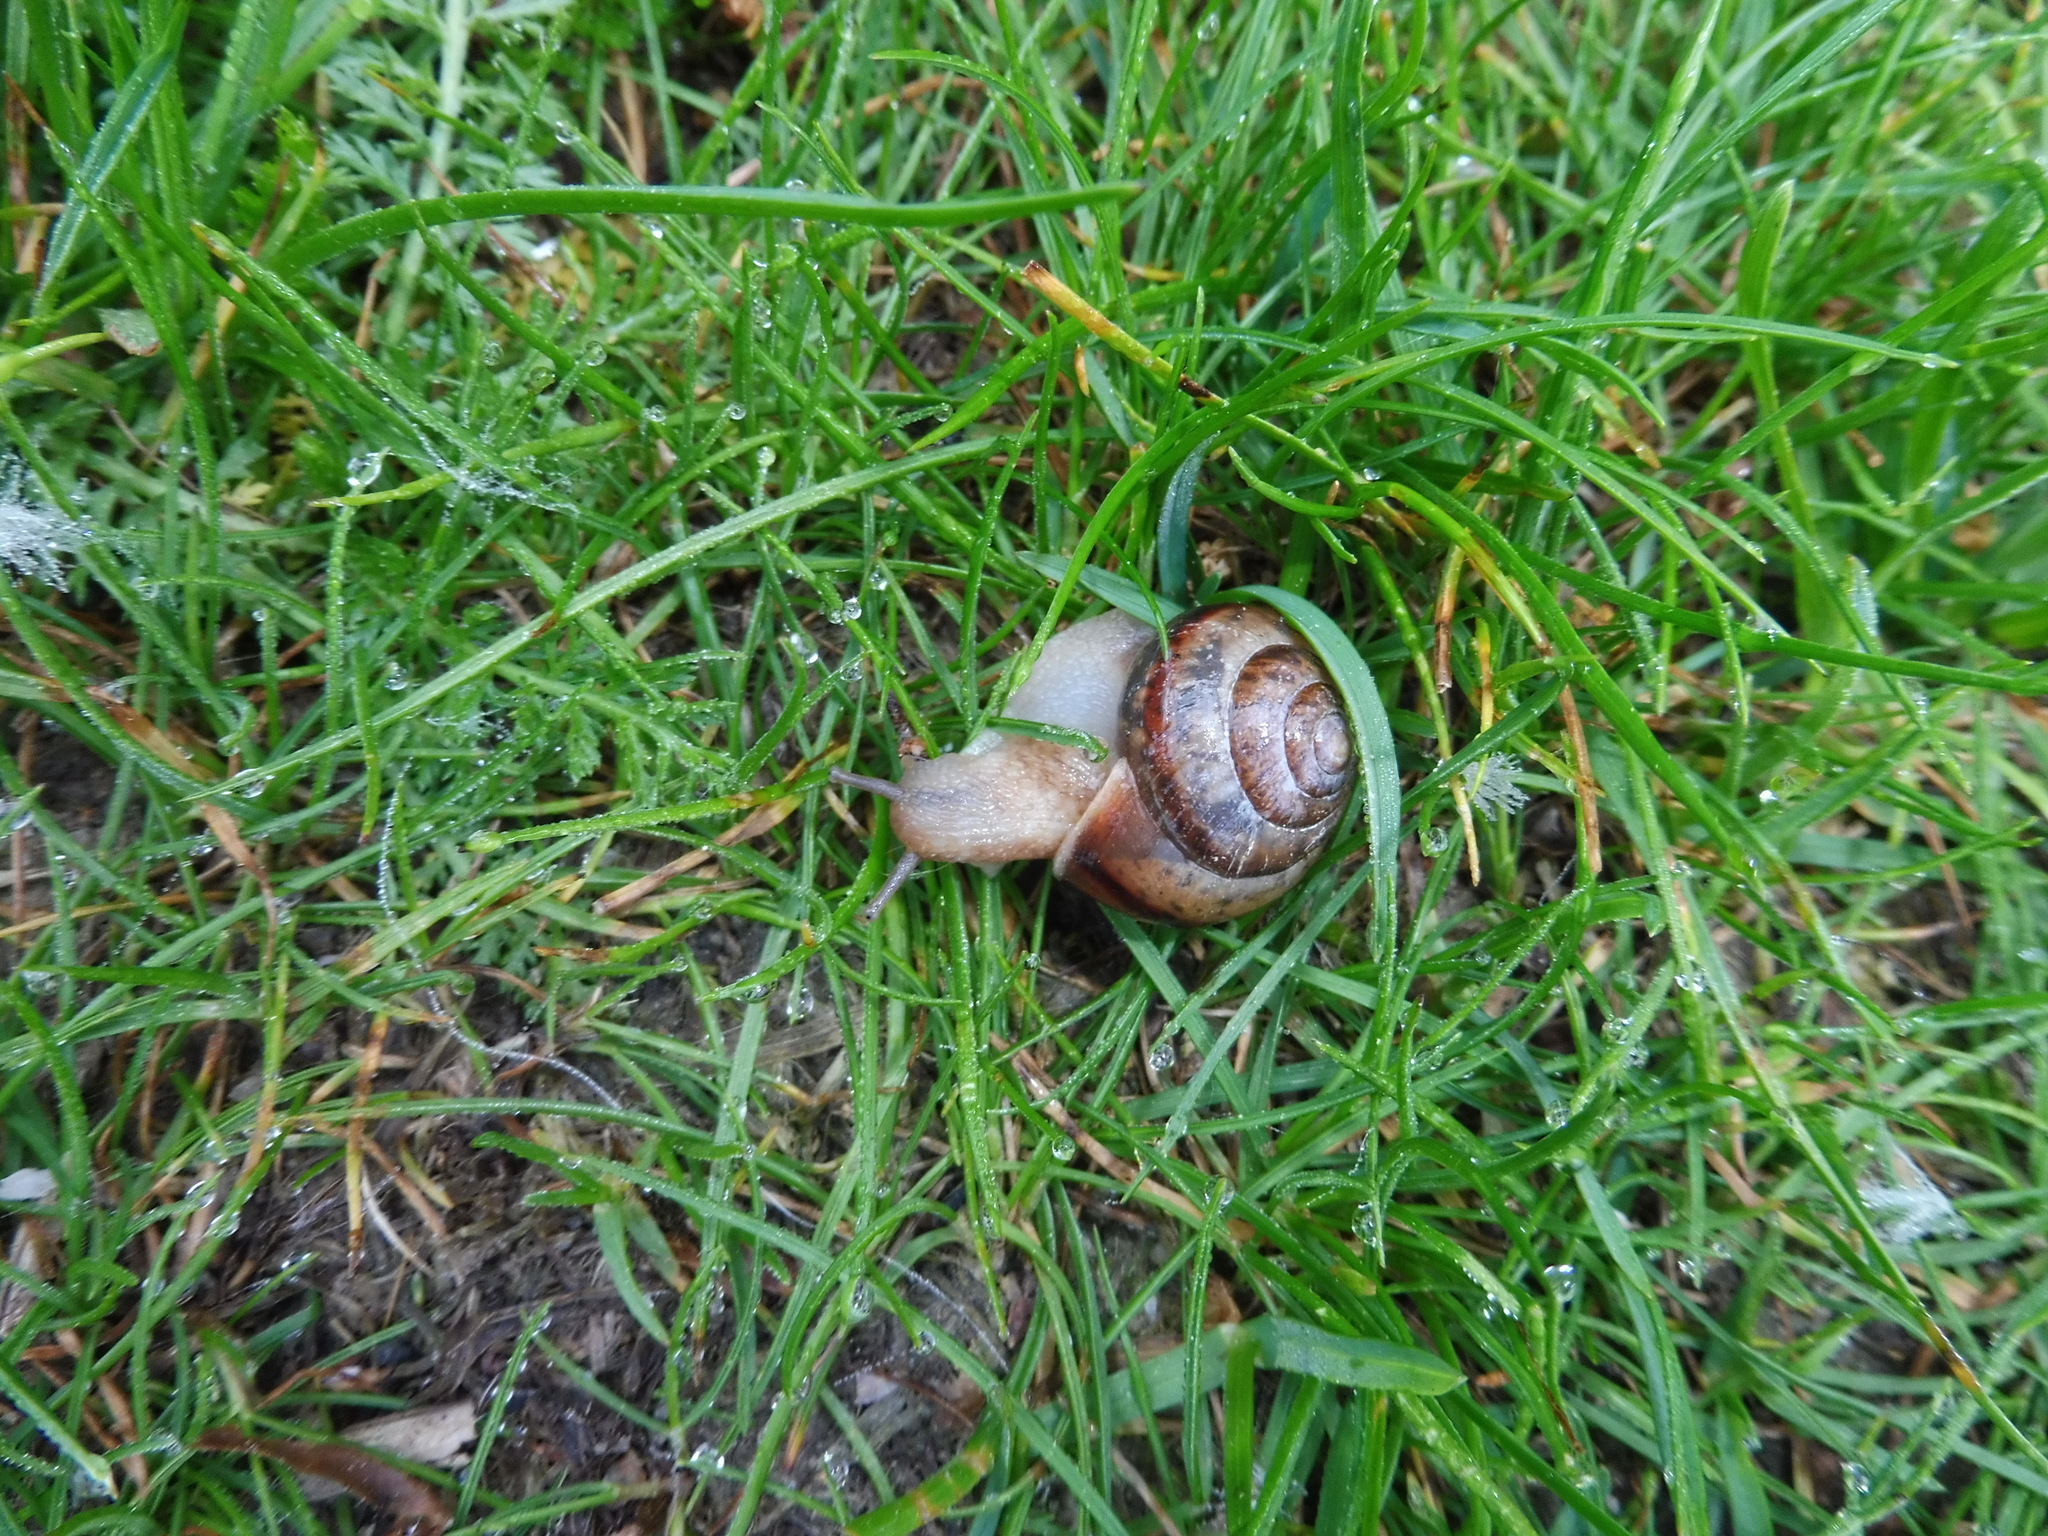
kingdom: Animalia
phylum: Mollusca
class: Gastropoda
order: Stylommatophora
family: Camaenidae
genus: Fruticicola
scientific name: Fruticicola fruticum
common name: Bush snail
